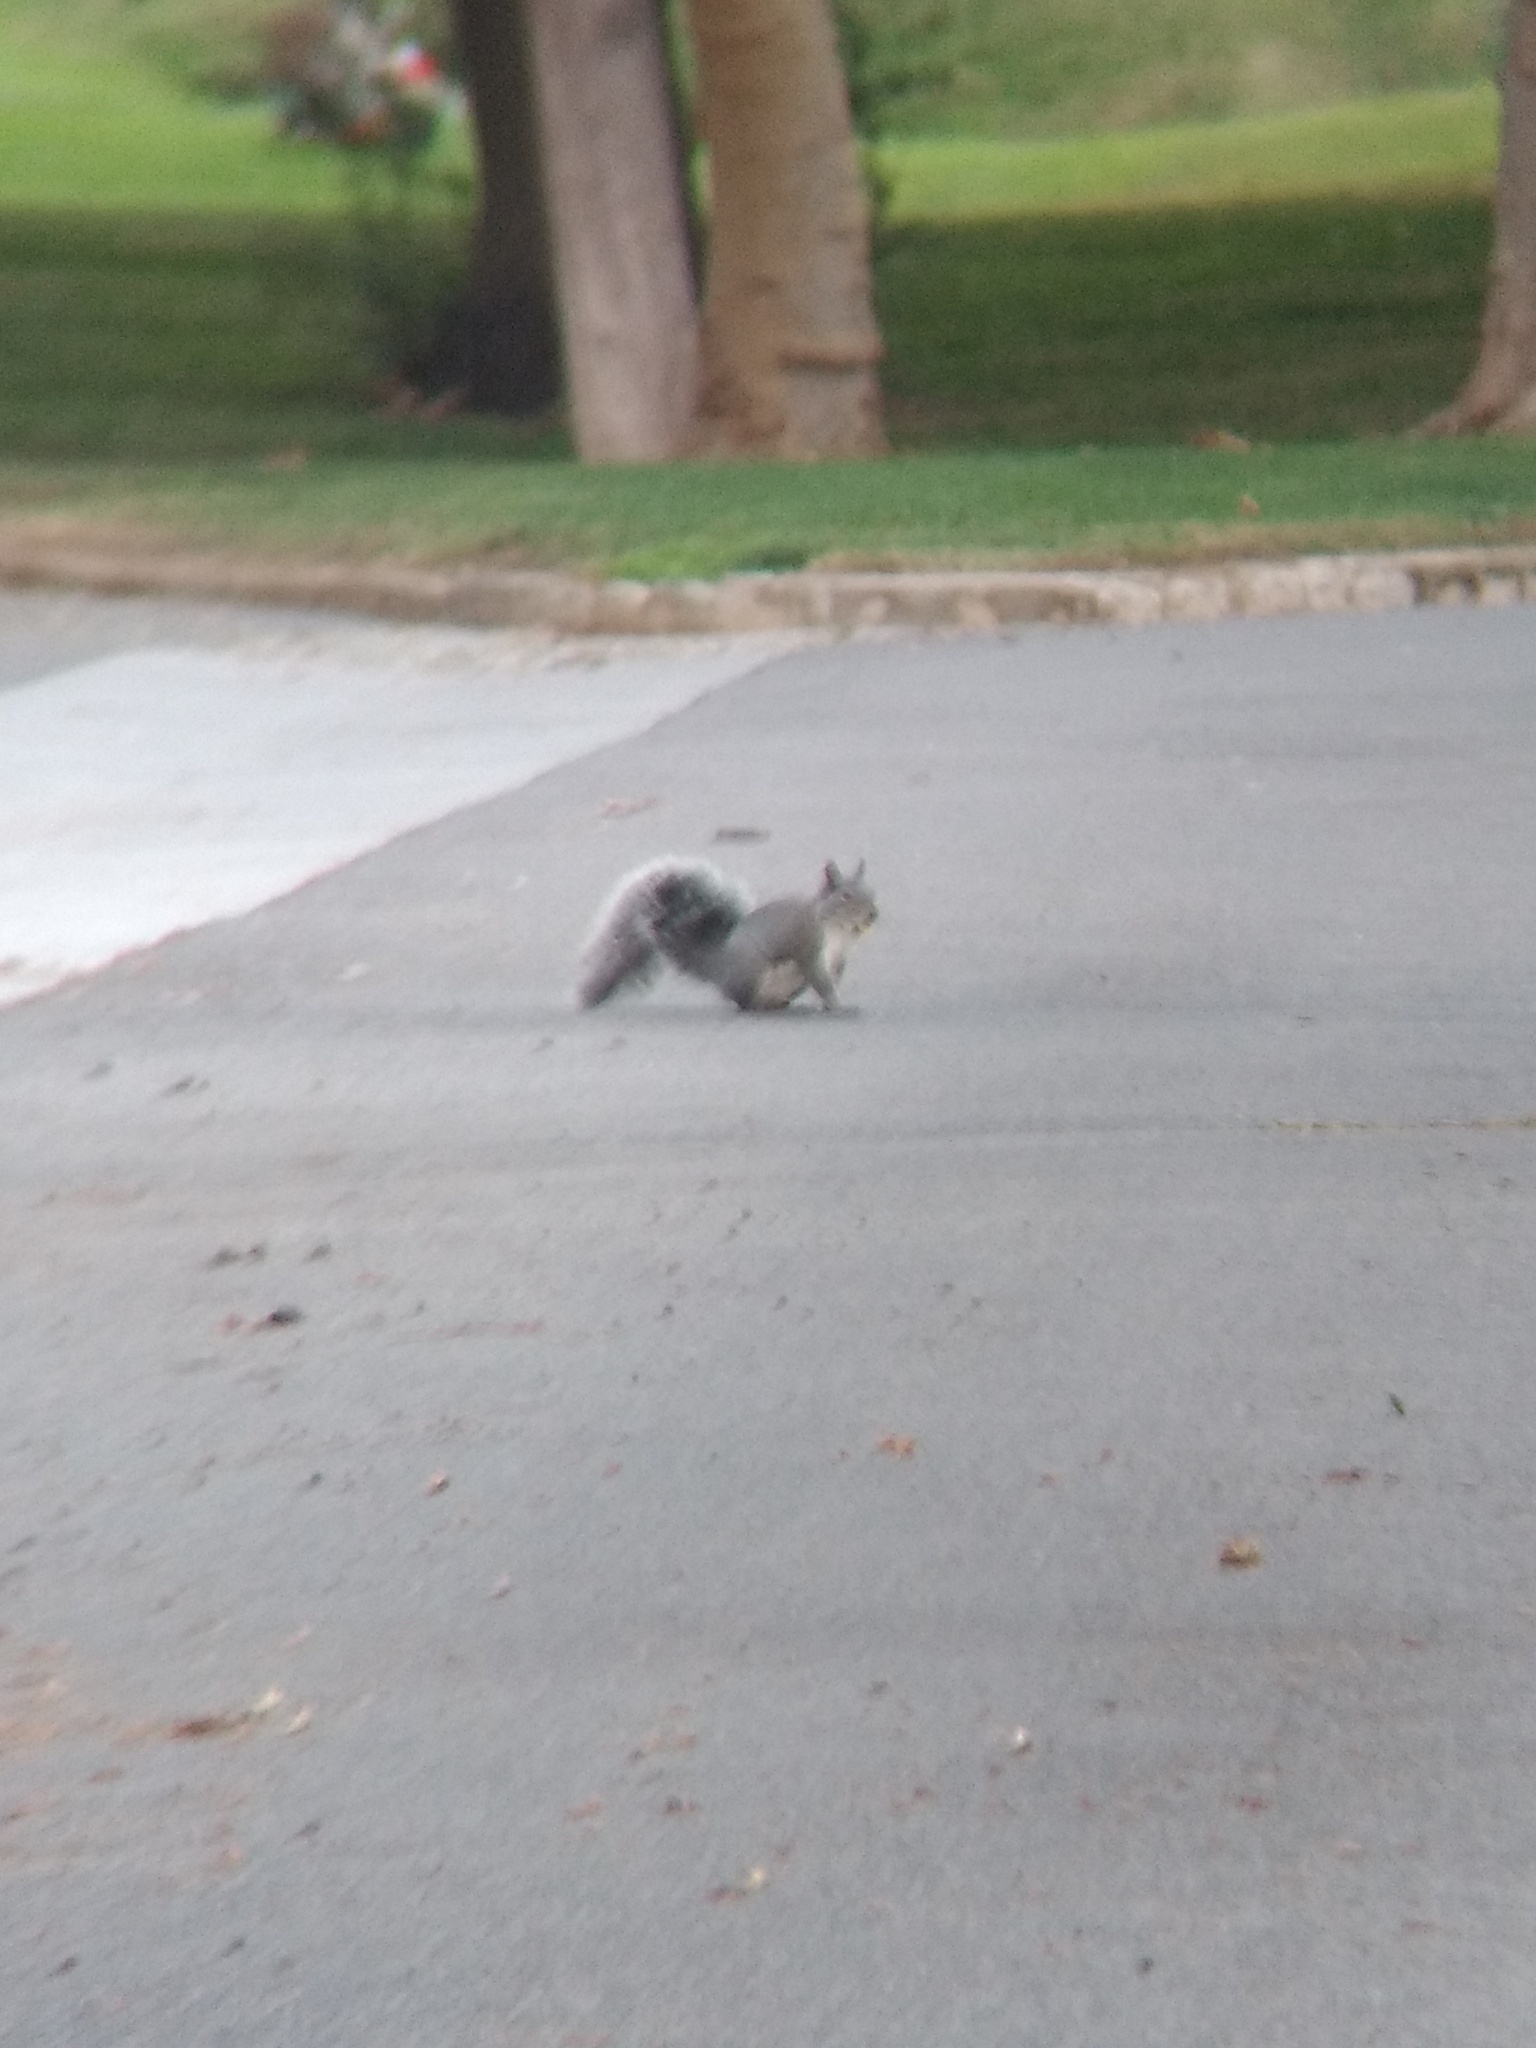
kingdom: Animalia
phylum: Chordata
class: Mammalia
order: Rodentia
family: Sciuridae
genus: Sciurus
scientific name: Sciurus griseus
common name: Western gray squirrel
